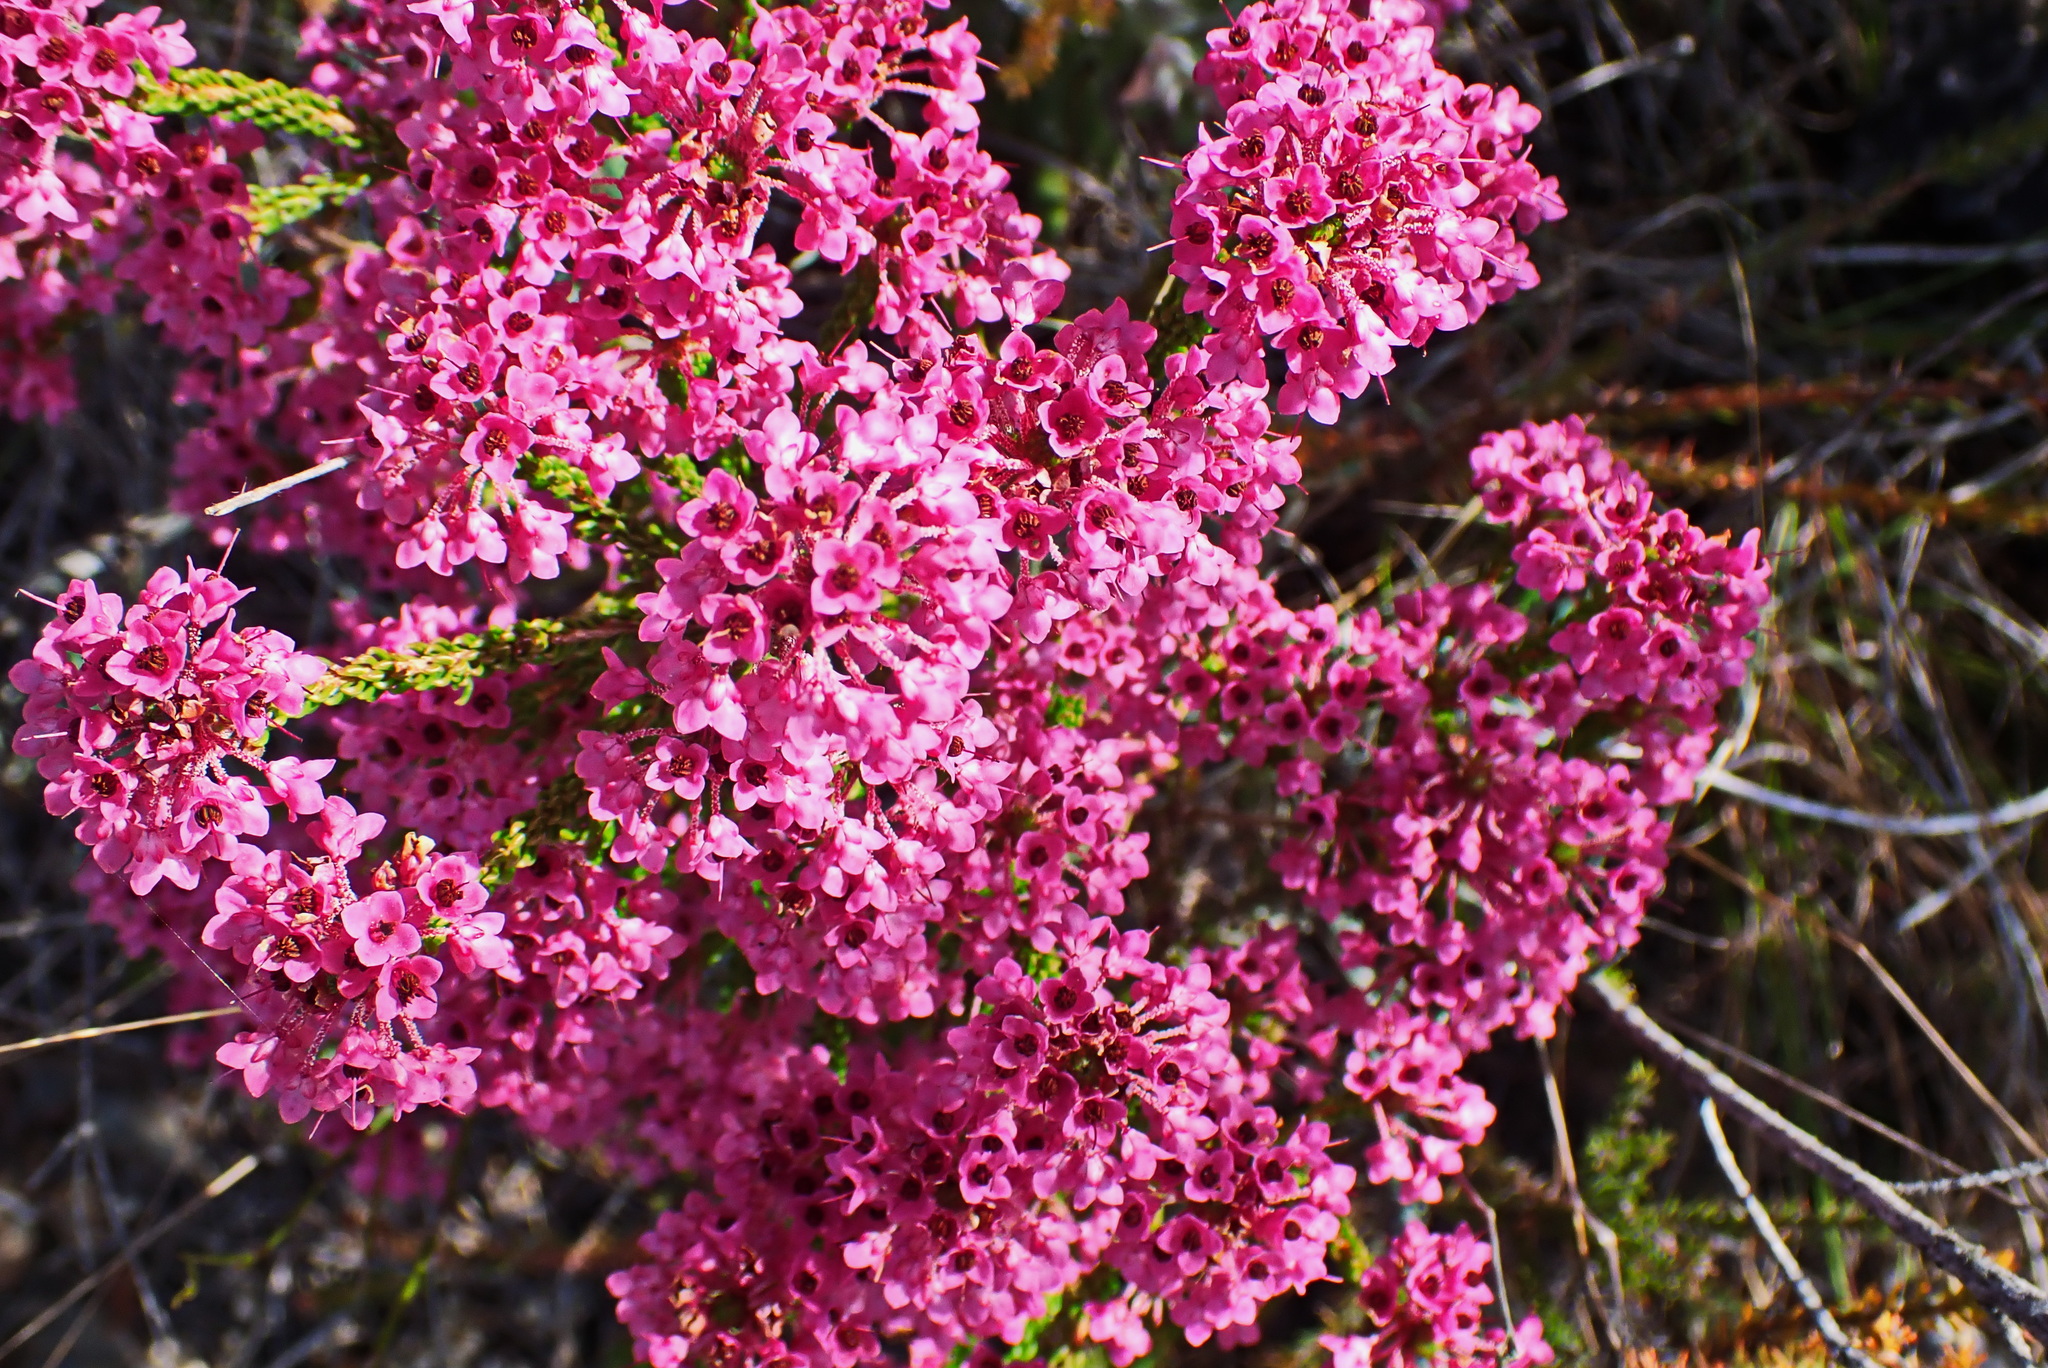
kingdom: Plantae
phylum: Tracheophyta
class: Magnoliopsida
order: Ericales
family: Ericaceae
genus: Erica
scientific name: Erica seriphiifolia
